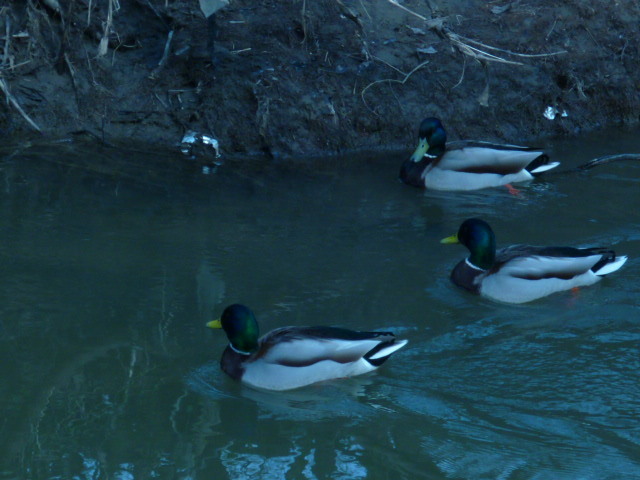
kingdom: Animalia
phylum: Chordata
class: Aves
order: Anseriformes
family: Anatidae
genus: Anas
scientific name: Anas platyrhynchos
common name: Mallard
